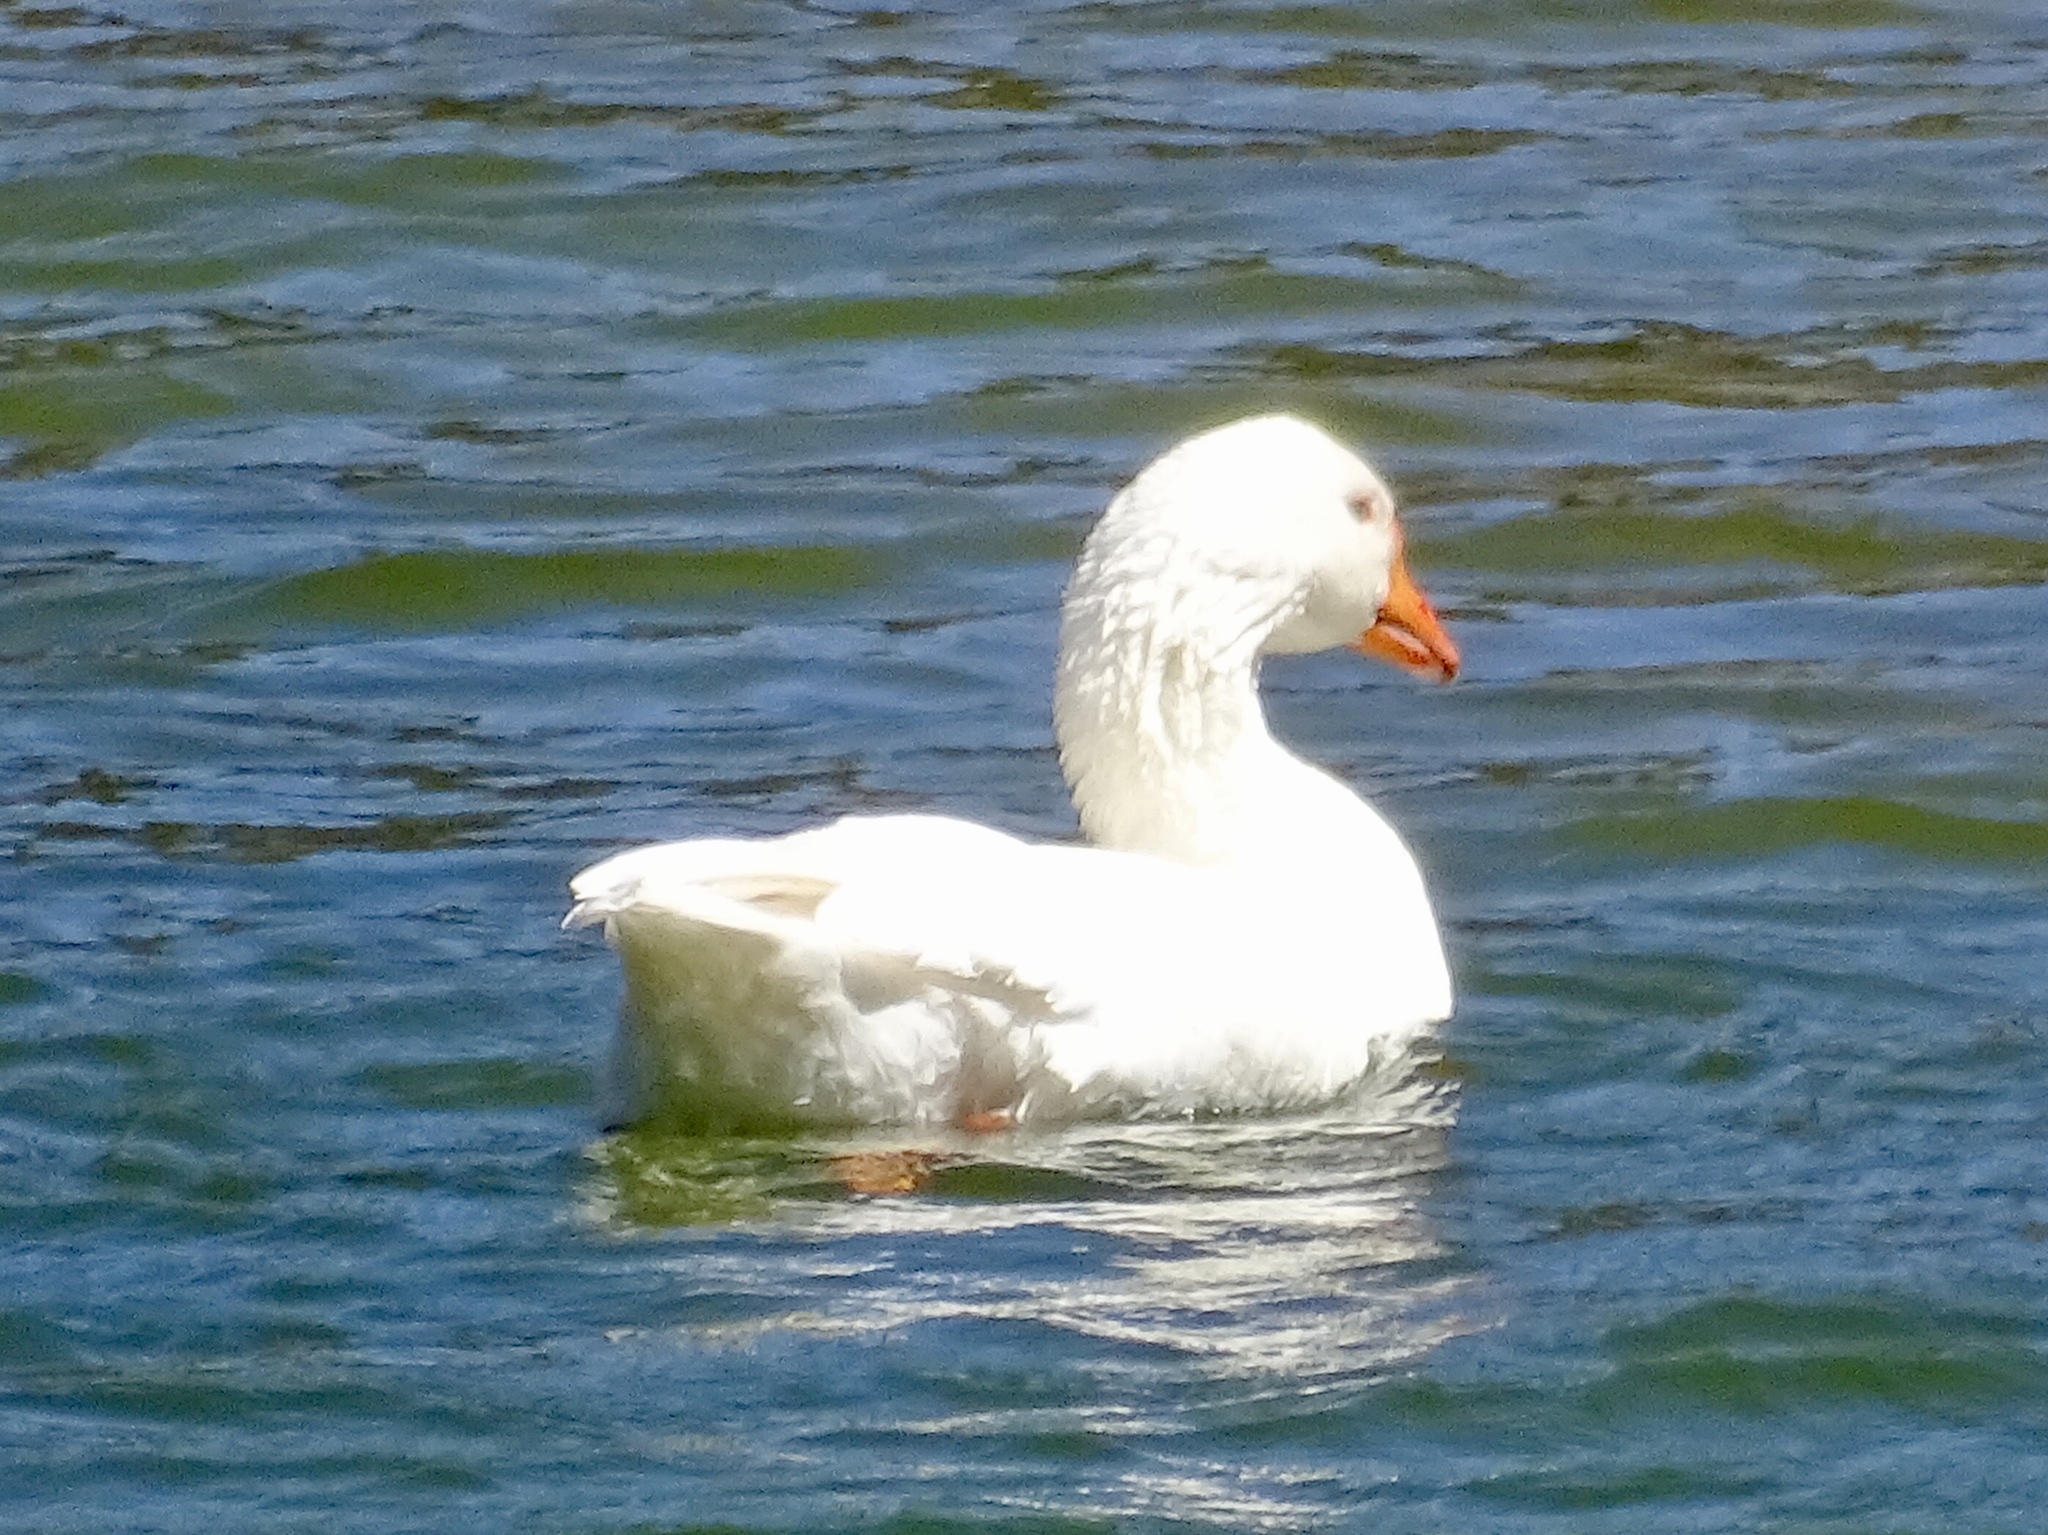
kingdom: Animalia
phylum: Chordata
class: Aves
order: Anseriformes
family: Anatidae
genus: Anser
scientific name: Anser
